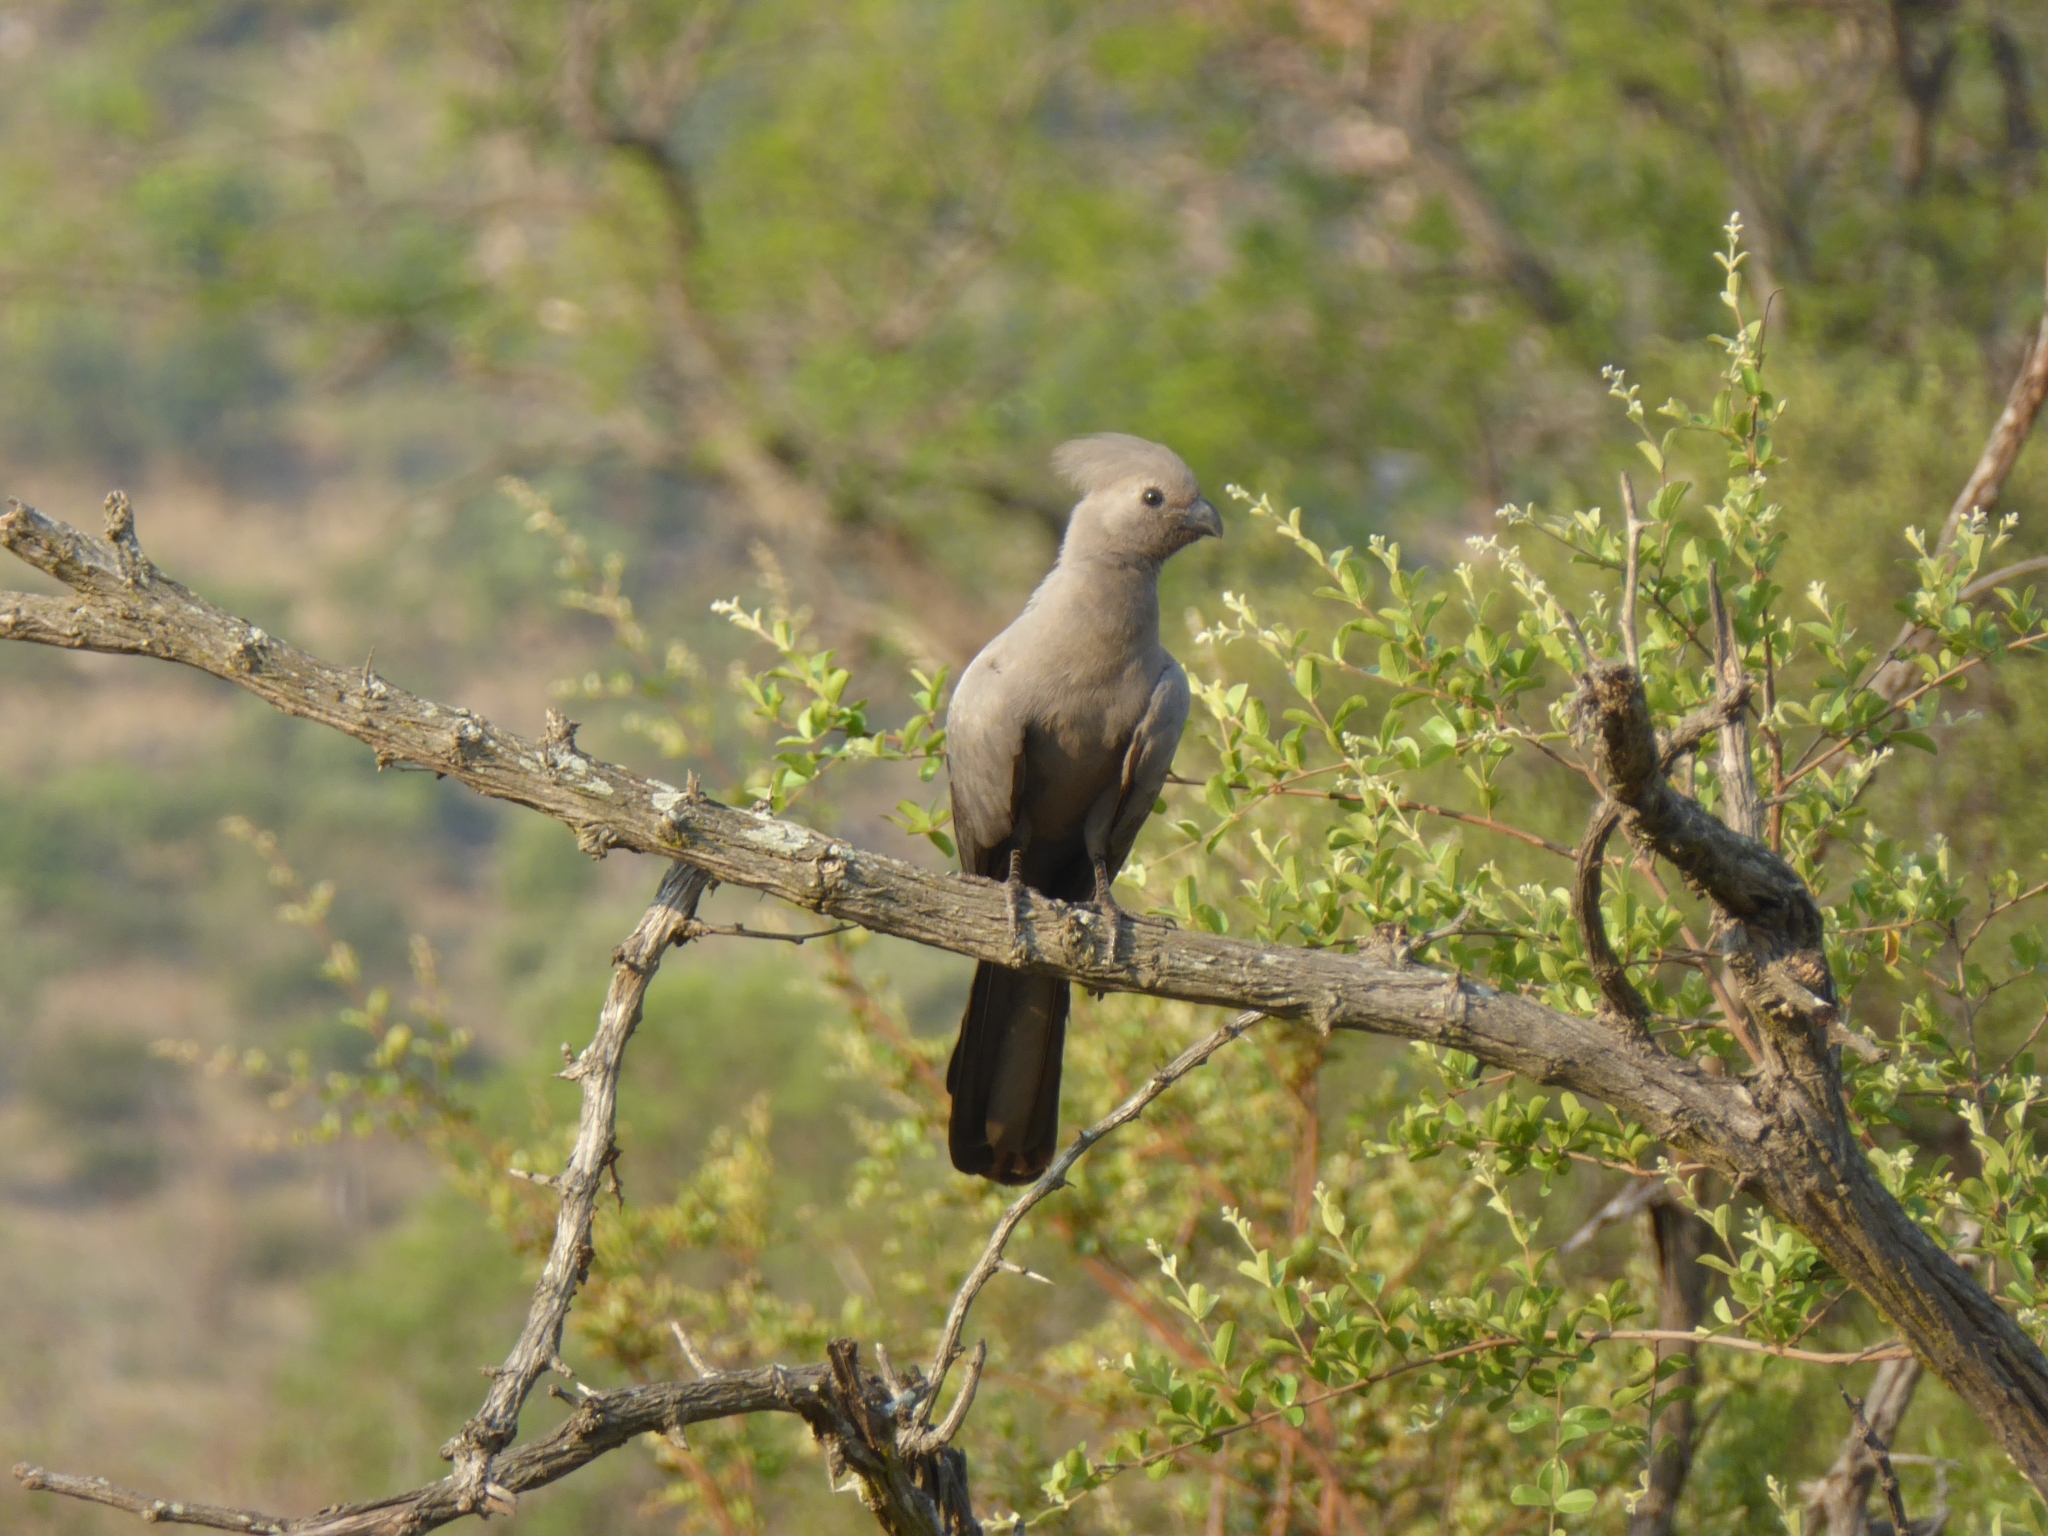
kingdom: Animalia
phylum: Chordata
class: Aves
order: Musophagiformes
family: Musophagidae
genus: Corythaixoides
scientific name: Corythaixoides concolor
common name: Grey go-away-bird
